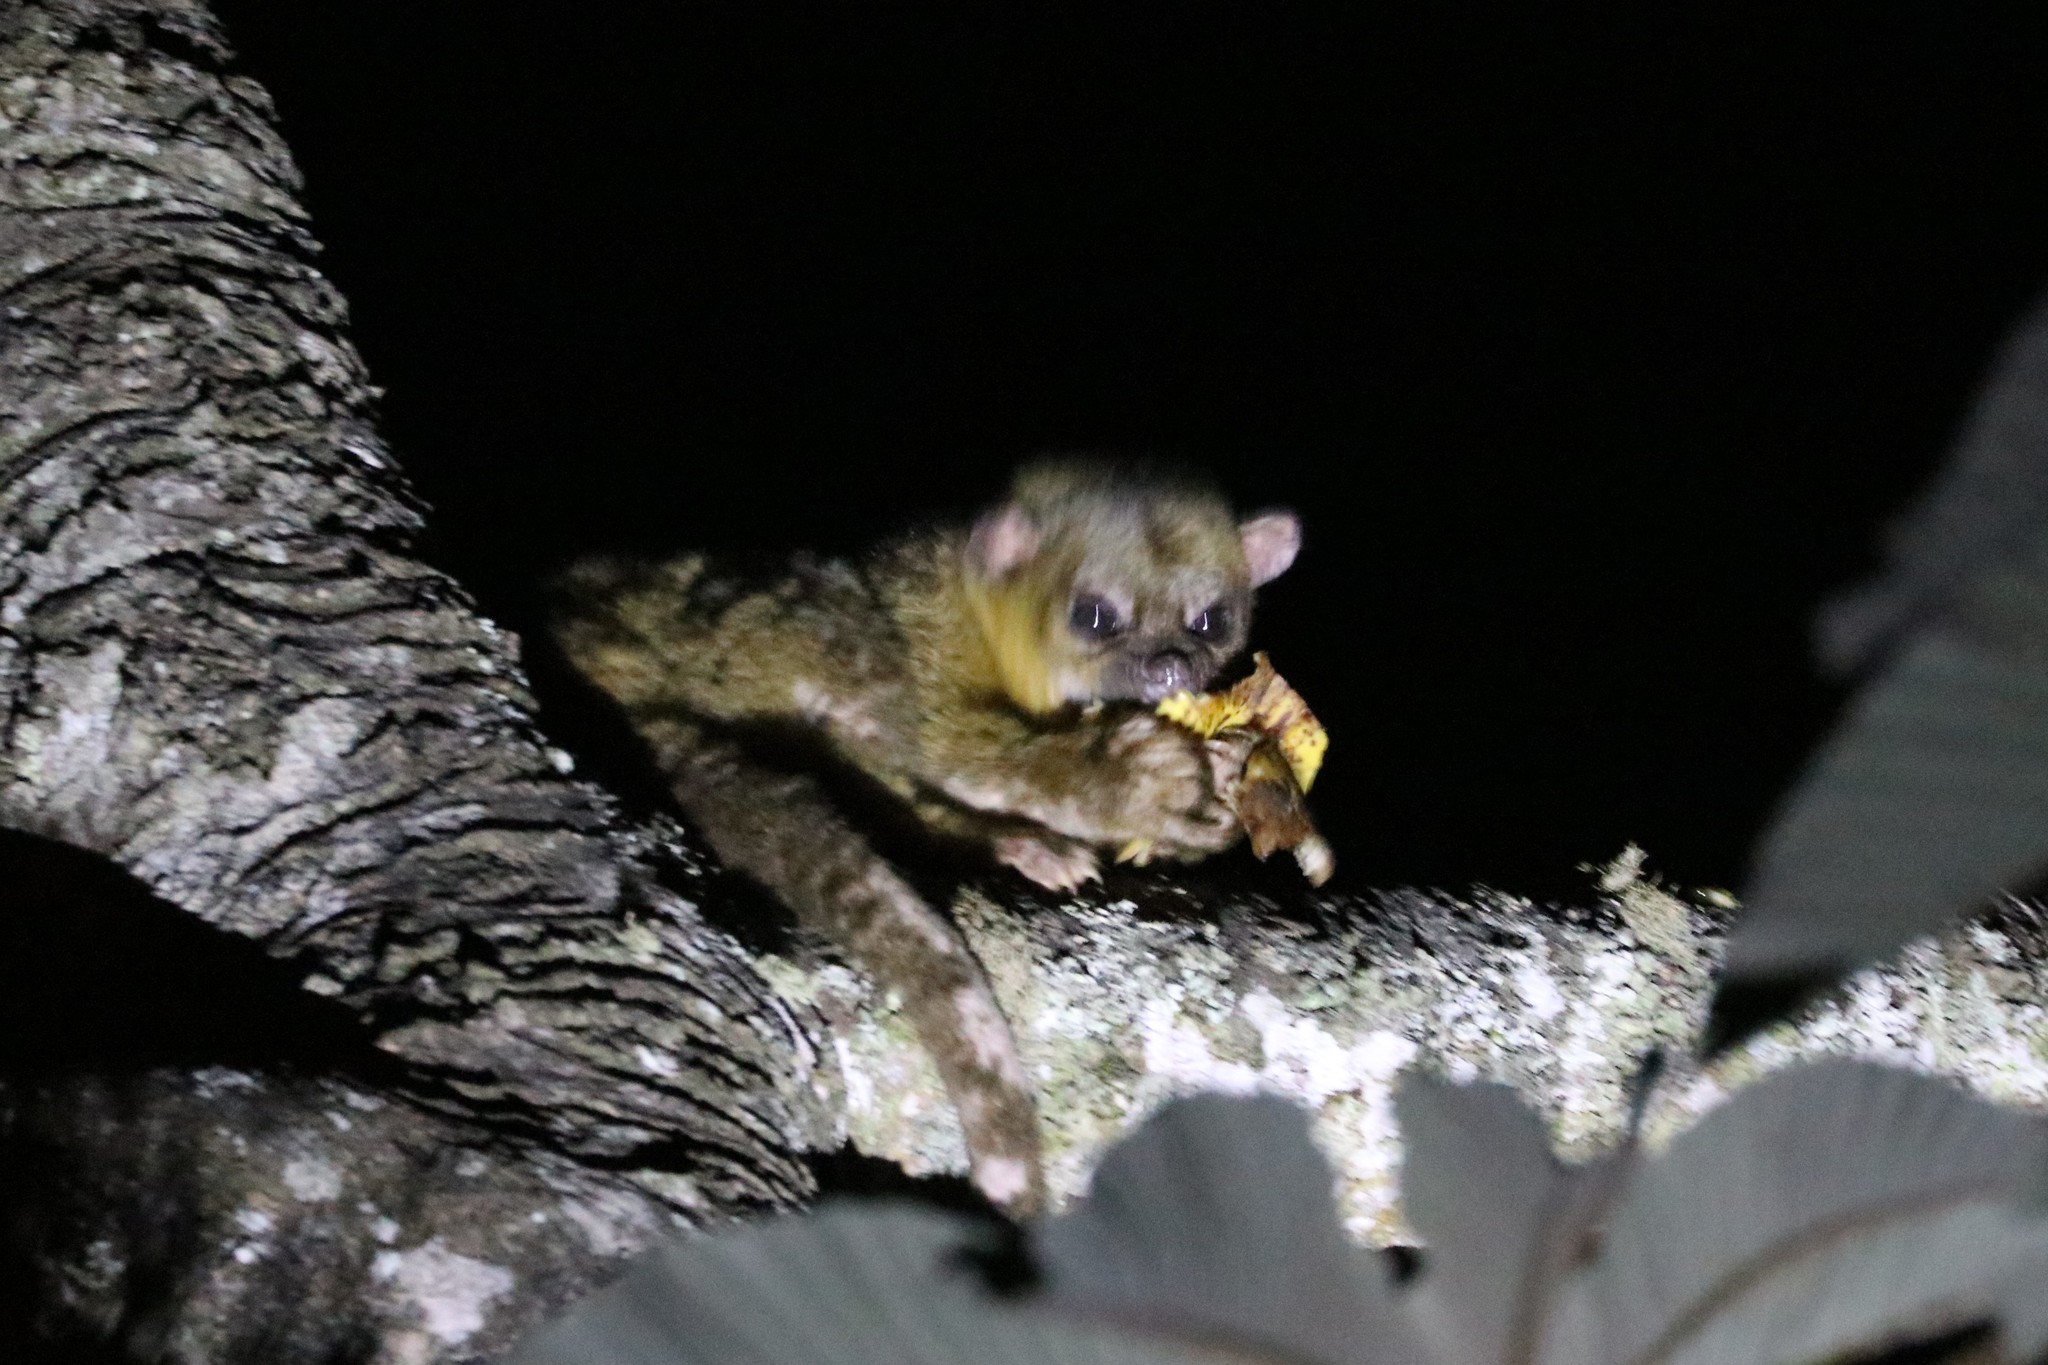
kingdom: Animalia
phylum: Chordata
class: Mammalia
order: Carnivora
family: Procyonidae
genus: Potos
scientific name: Potos flavus
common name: Kinkajou
